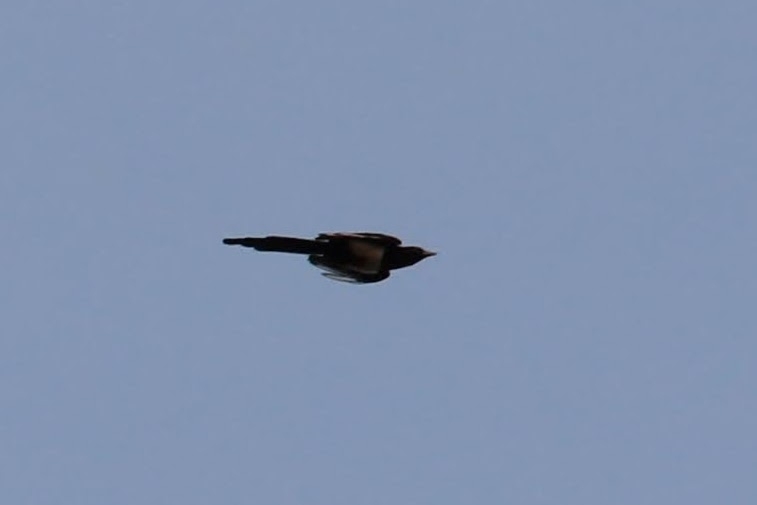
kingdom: Animalia
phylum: Chordata
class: Aves
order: Passeriformes
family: Corvidae
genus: Pica
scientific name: Pica hudsonia
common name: Black-billed magpie
